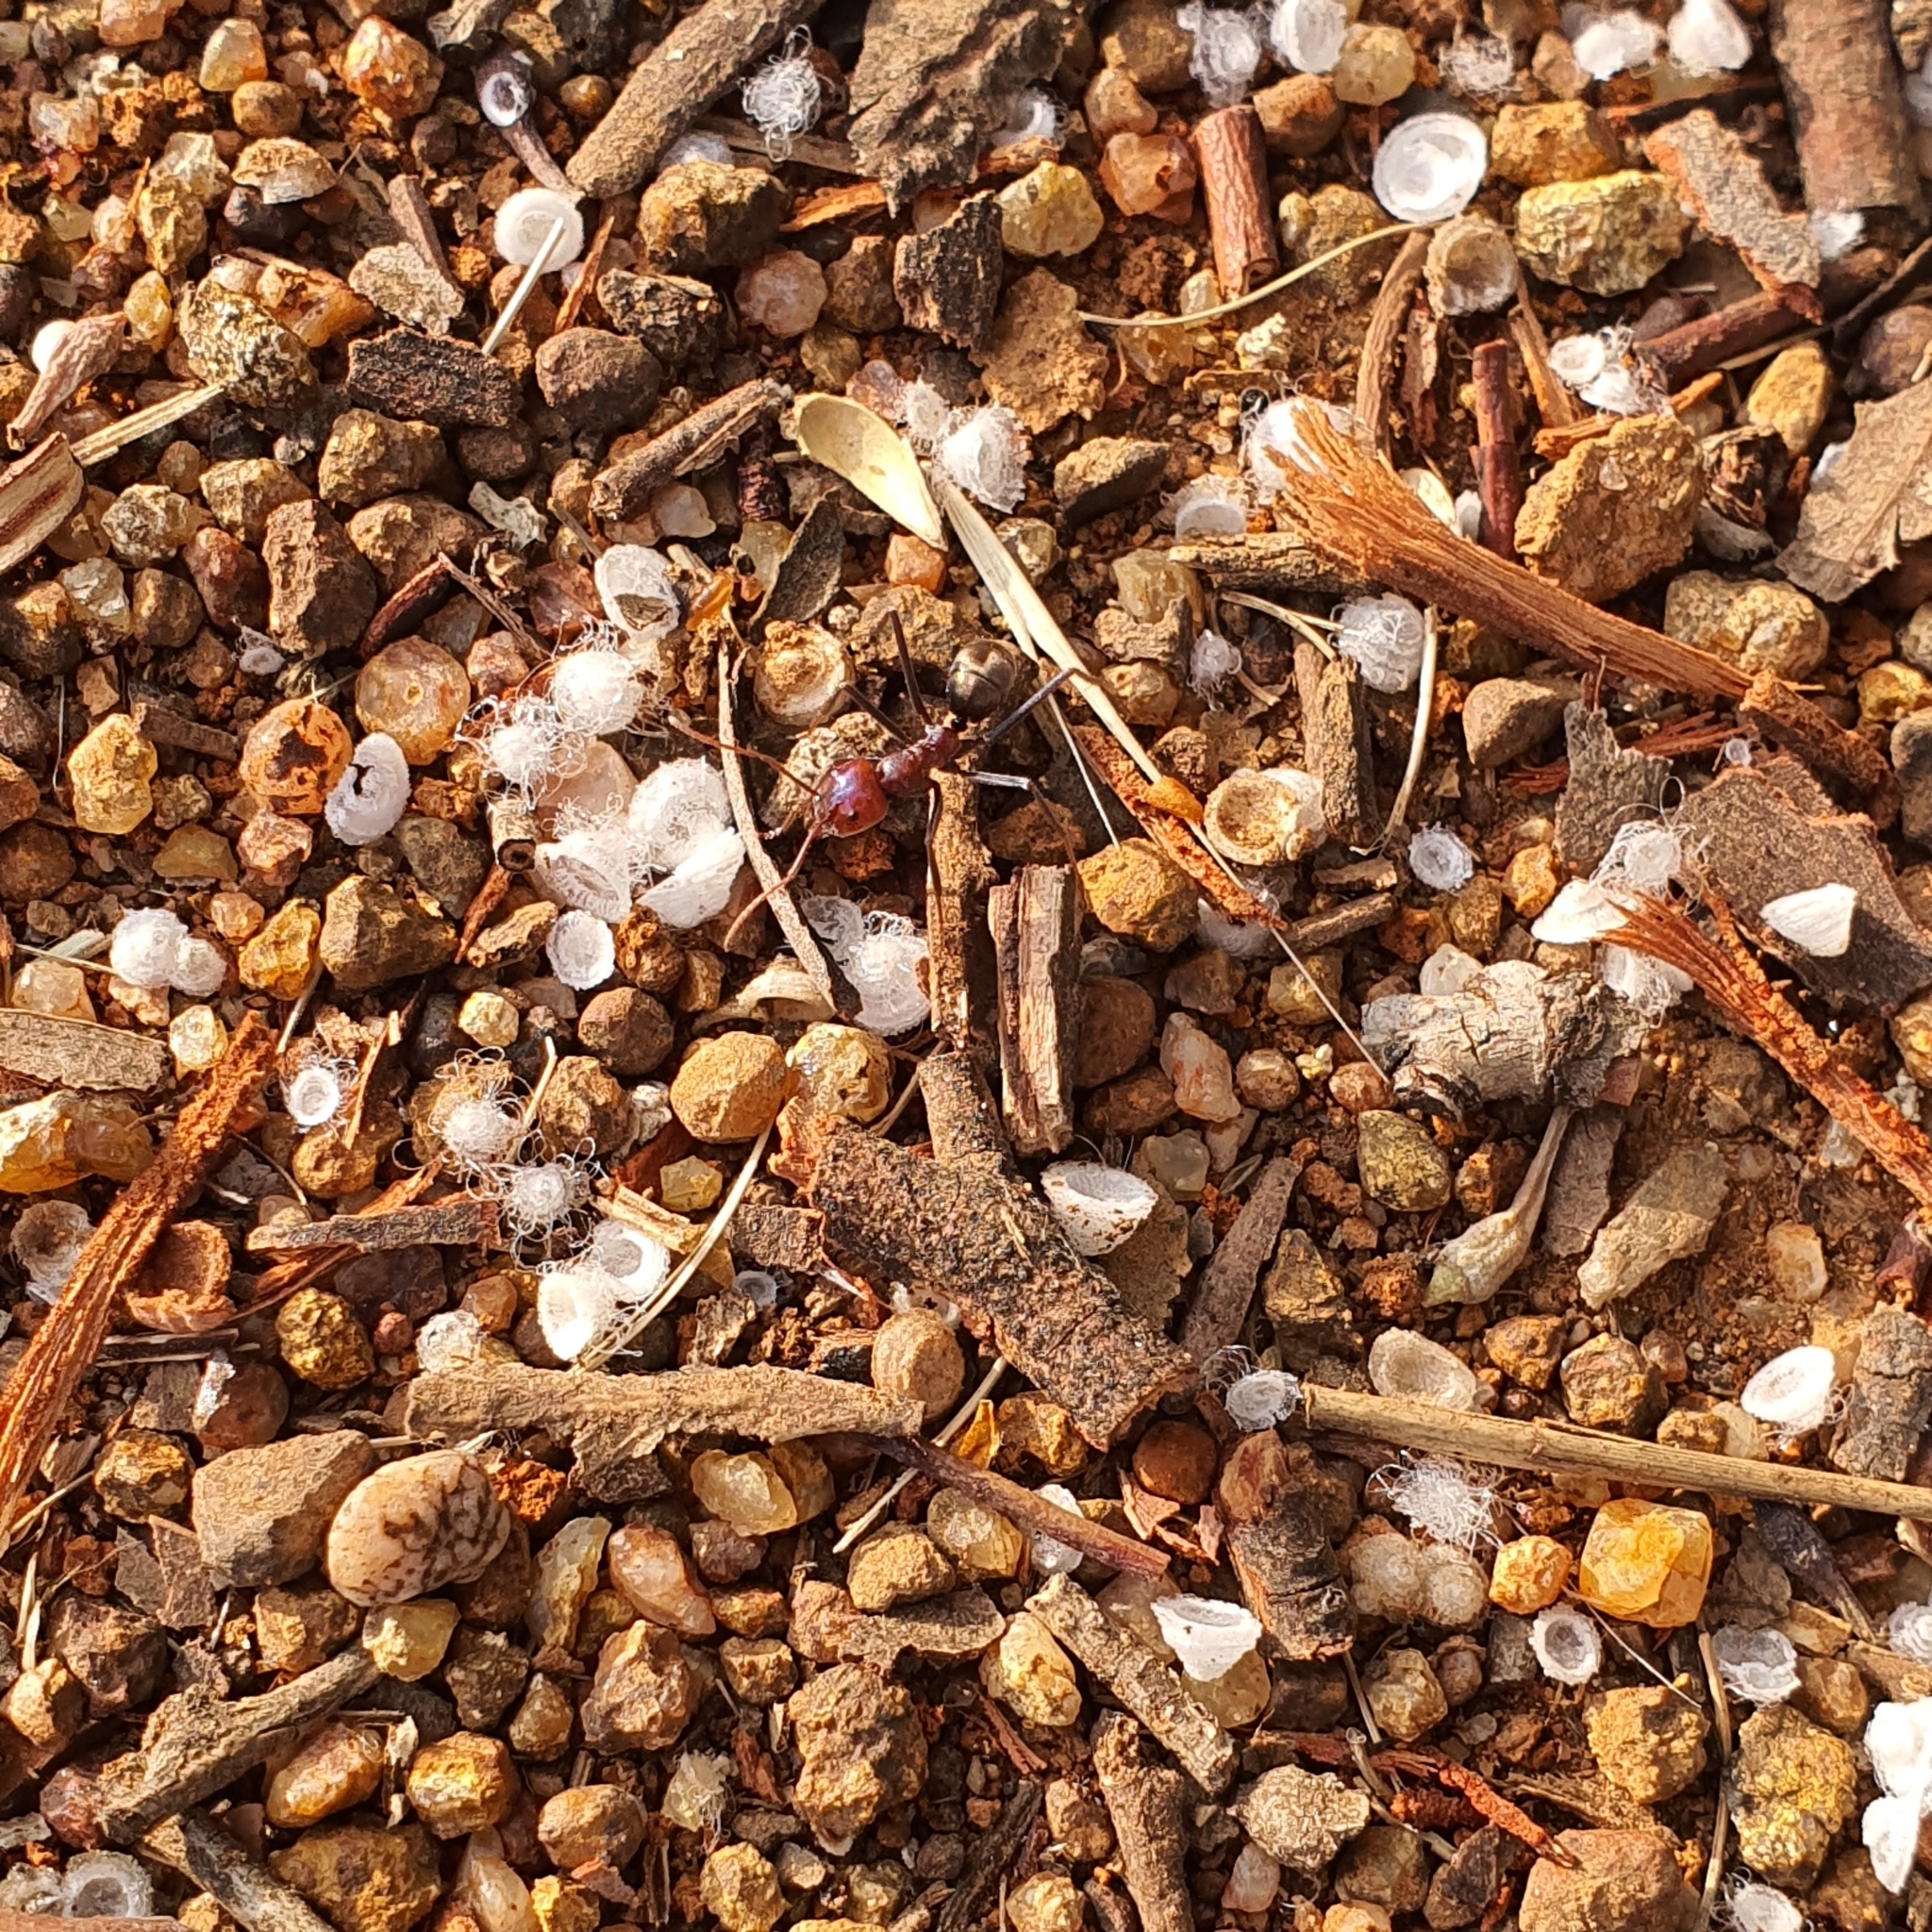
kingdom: Animalia
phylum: Arthropoda
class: Insecta
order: Hymenoptera
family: Formicidae
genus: Iridomyrmex
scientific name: Iridomyrmex purpureus
